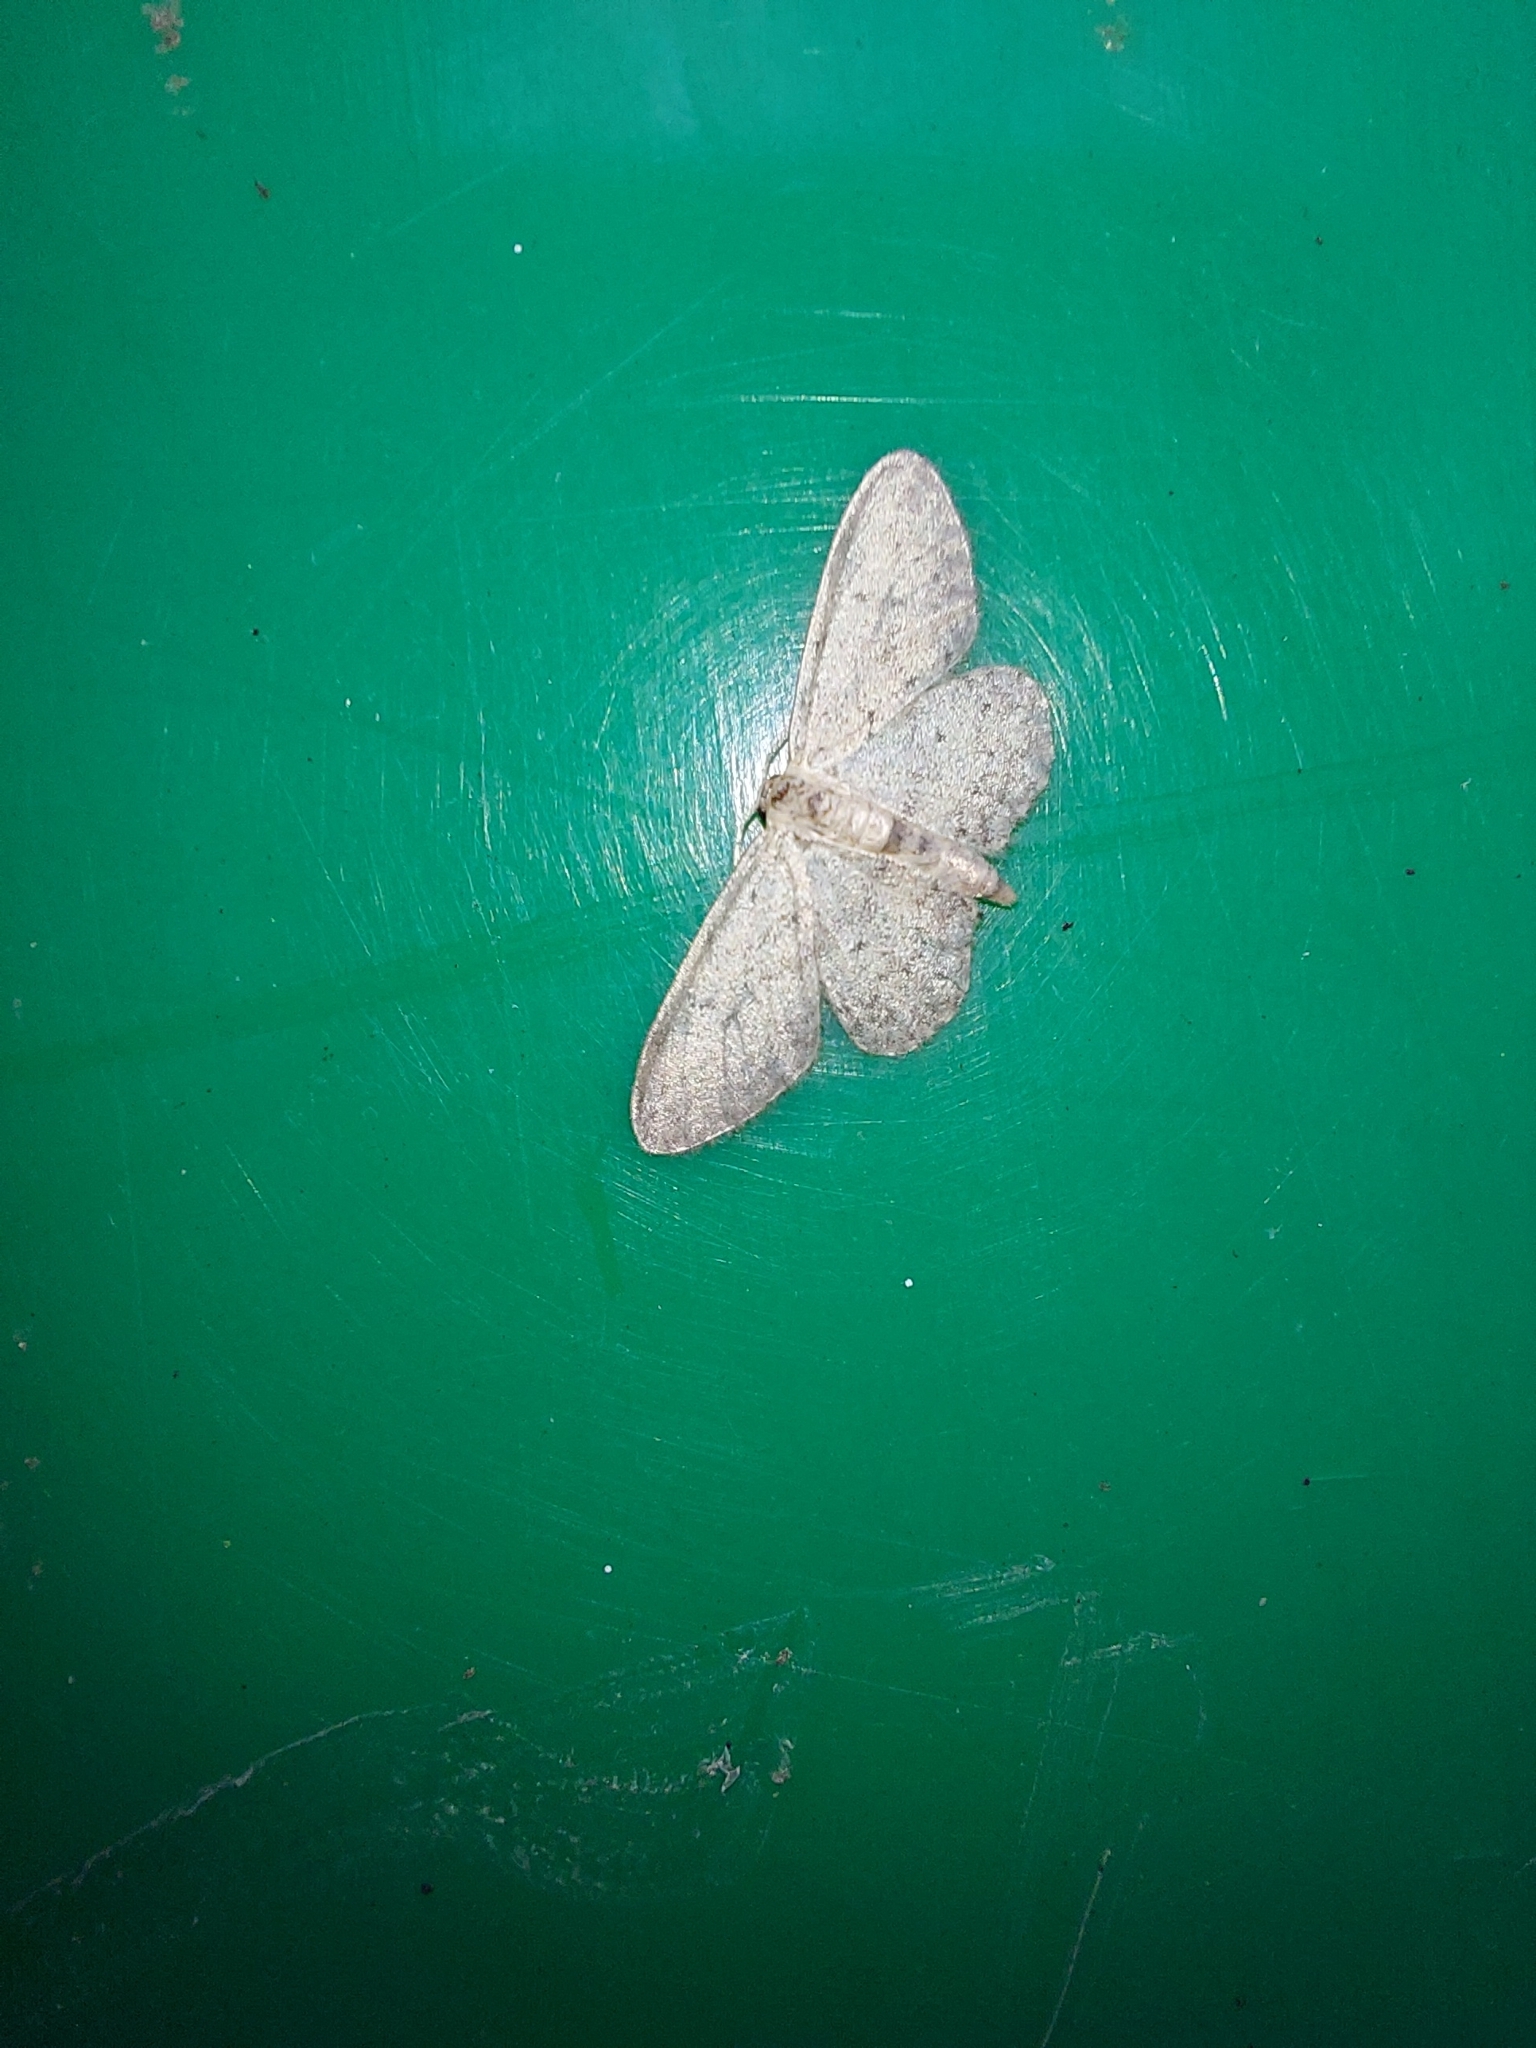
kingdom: Animalia
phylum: Arthropoda
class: Insecta
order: Lepidoptera
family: Geometridae
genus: Idaea
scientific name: Idaea seriata
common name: Small dusty wave
